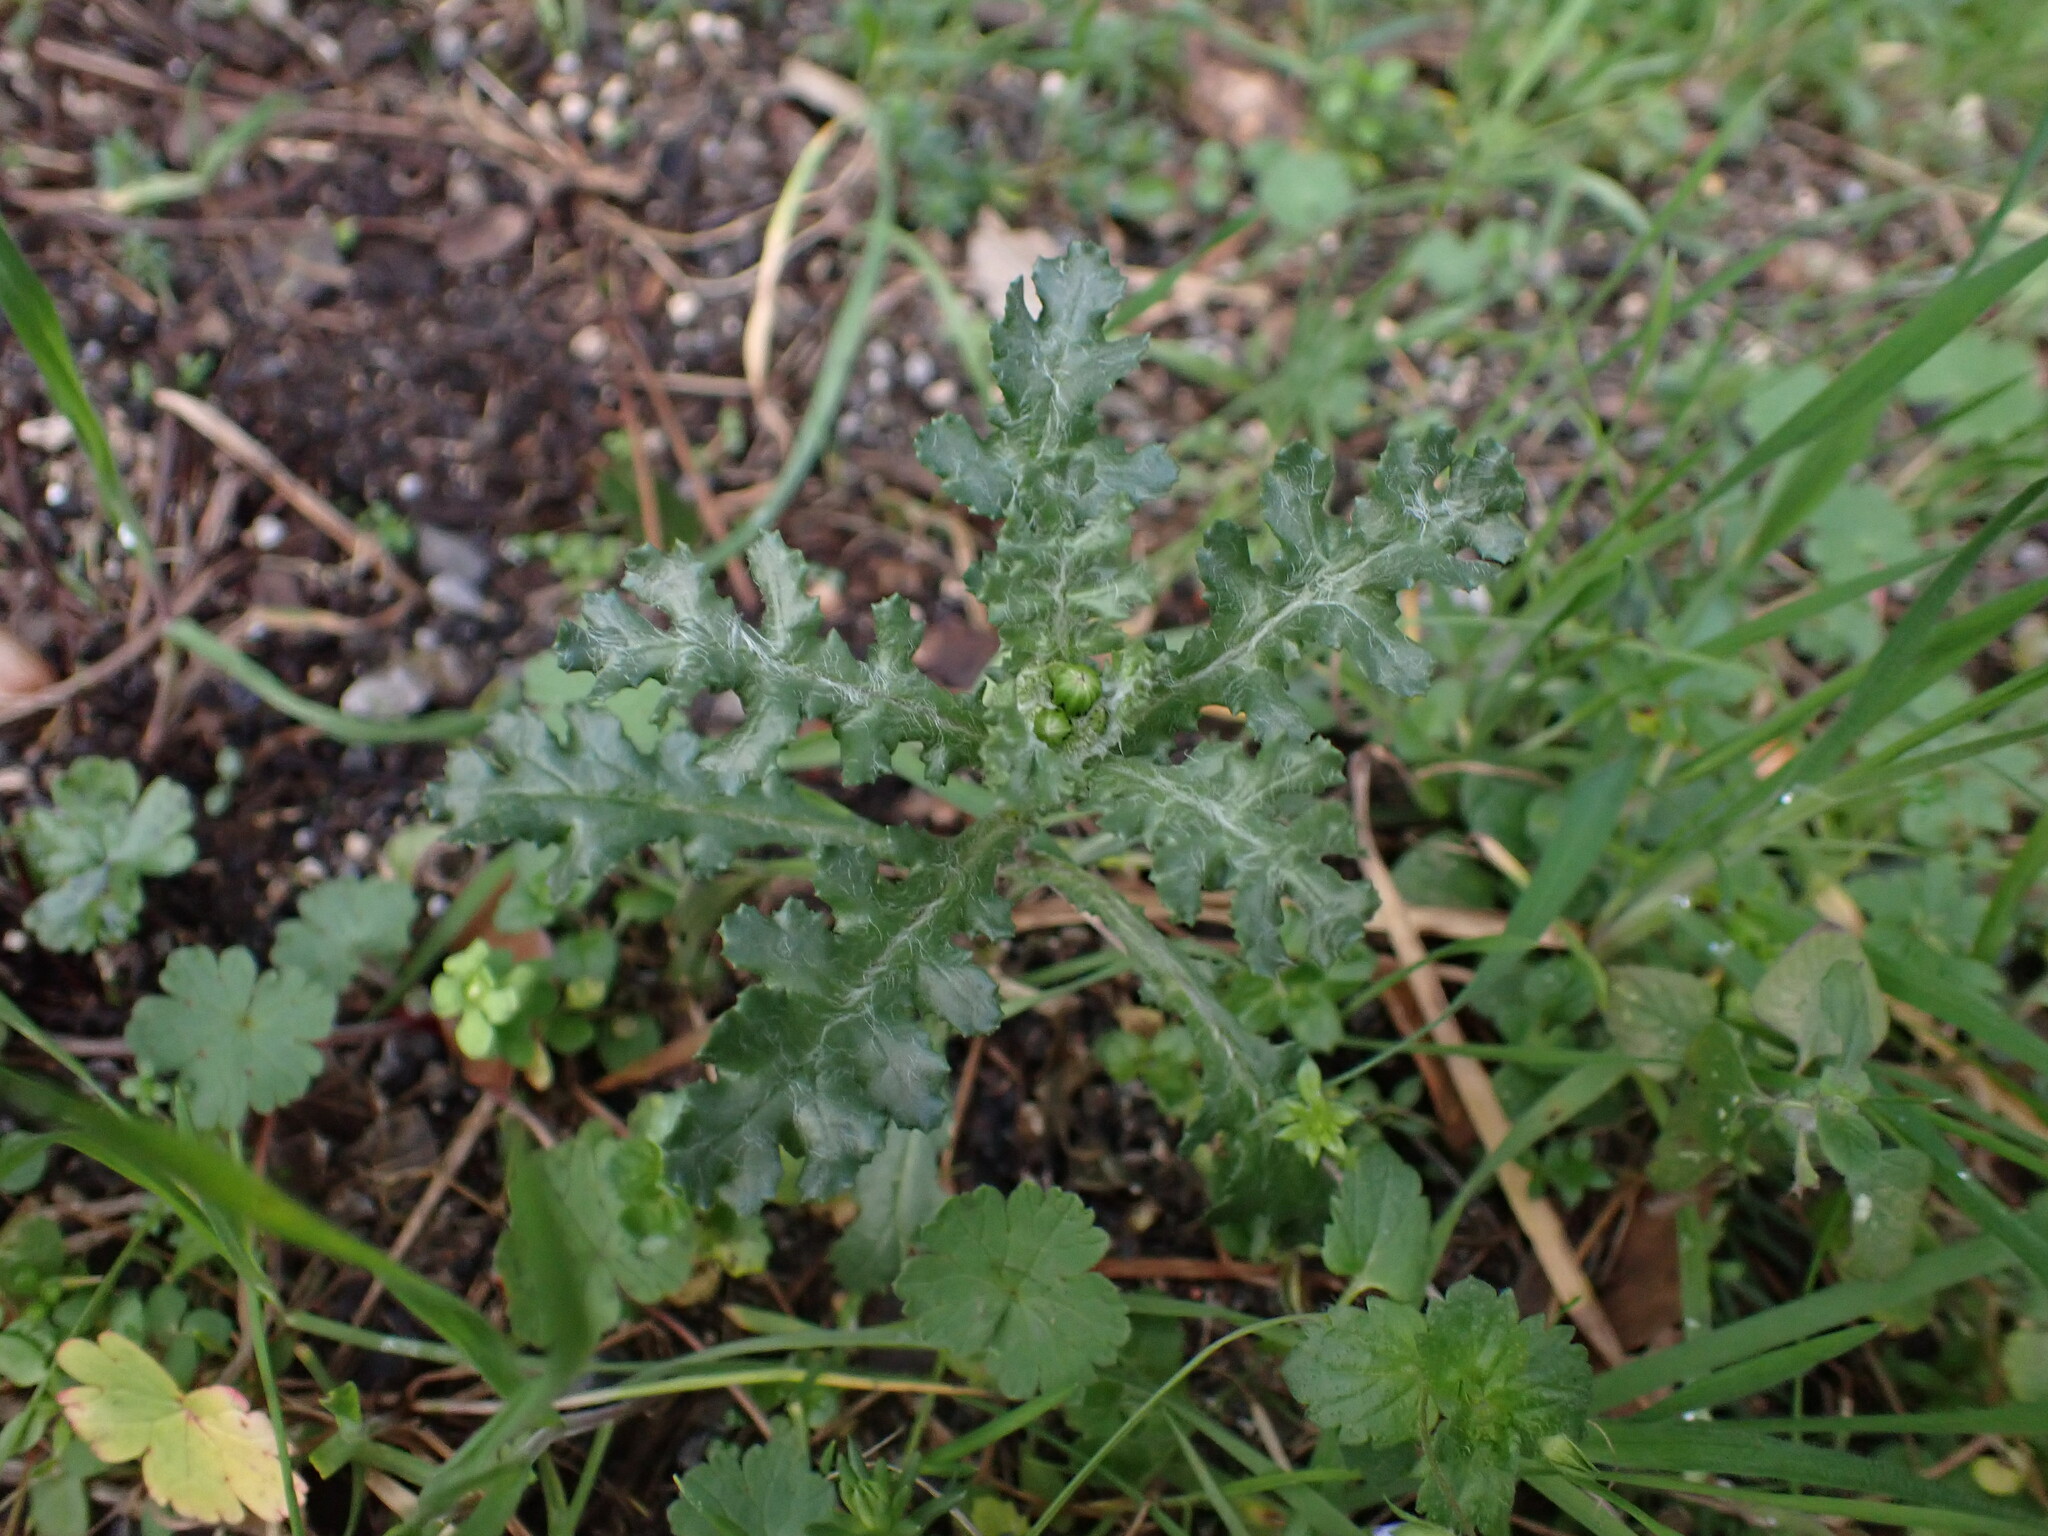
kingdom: Plantae
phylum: Tracheophyta
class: Magnoliopsida
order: Asterales
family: Asteraceae
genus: Senecio
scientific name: Senecio vulgaris
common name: Old-man-in-the-spring
